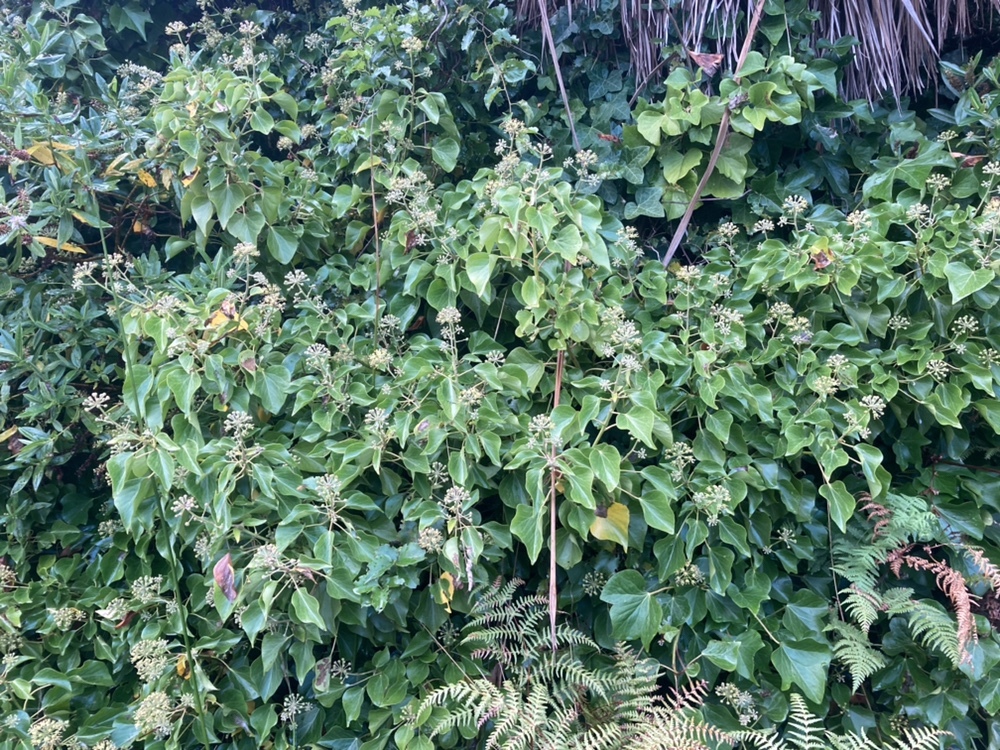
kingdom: Plantae
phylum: Tracheophyta
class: Magnoliopsida
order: Apiales
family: Araliaceae
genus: Hedera
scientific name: Hedera helix
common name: Ivy
